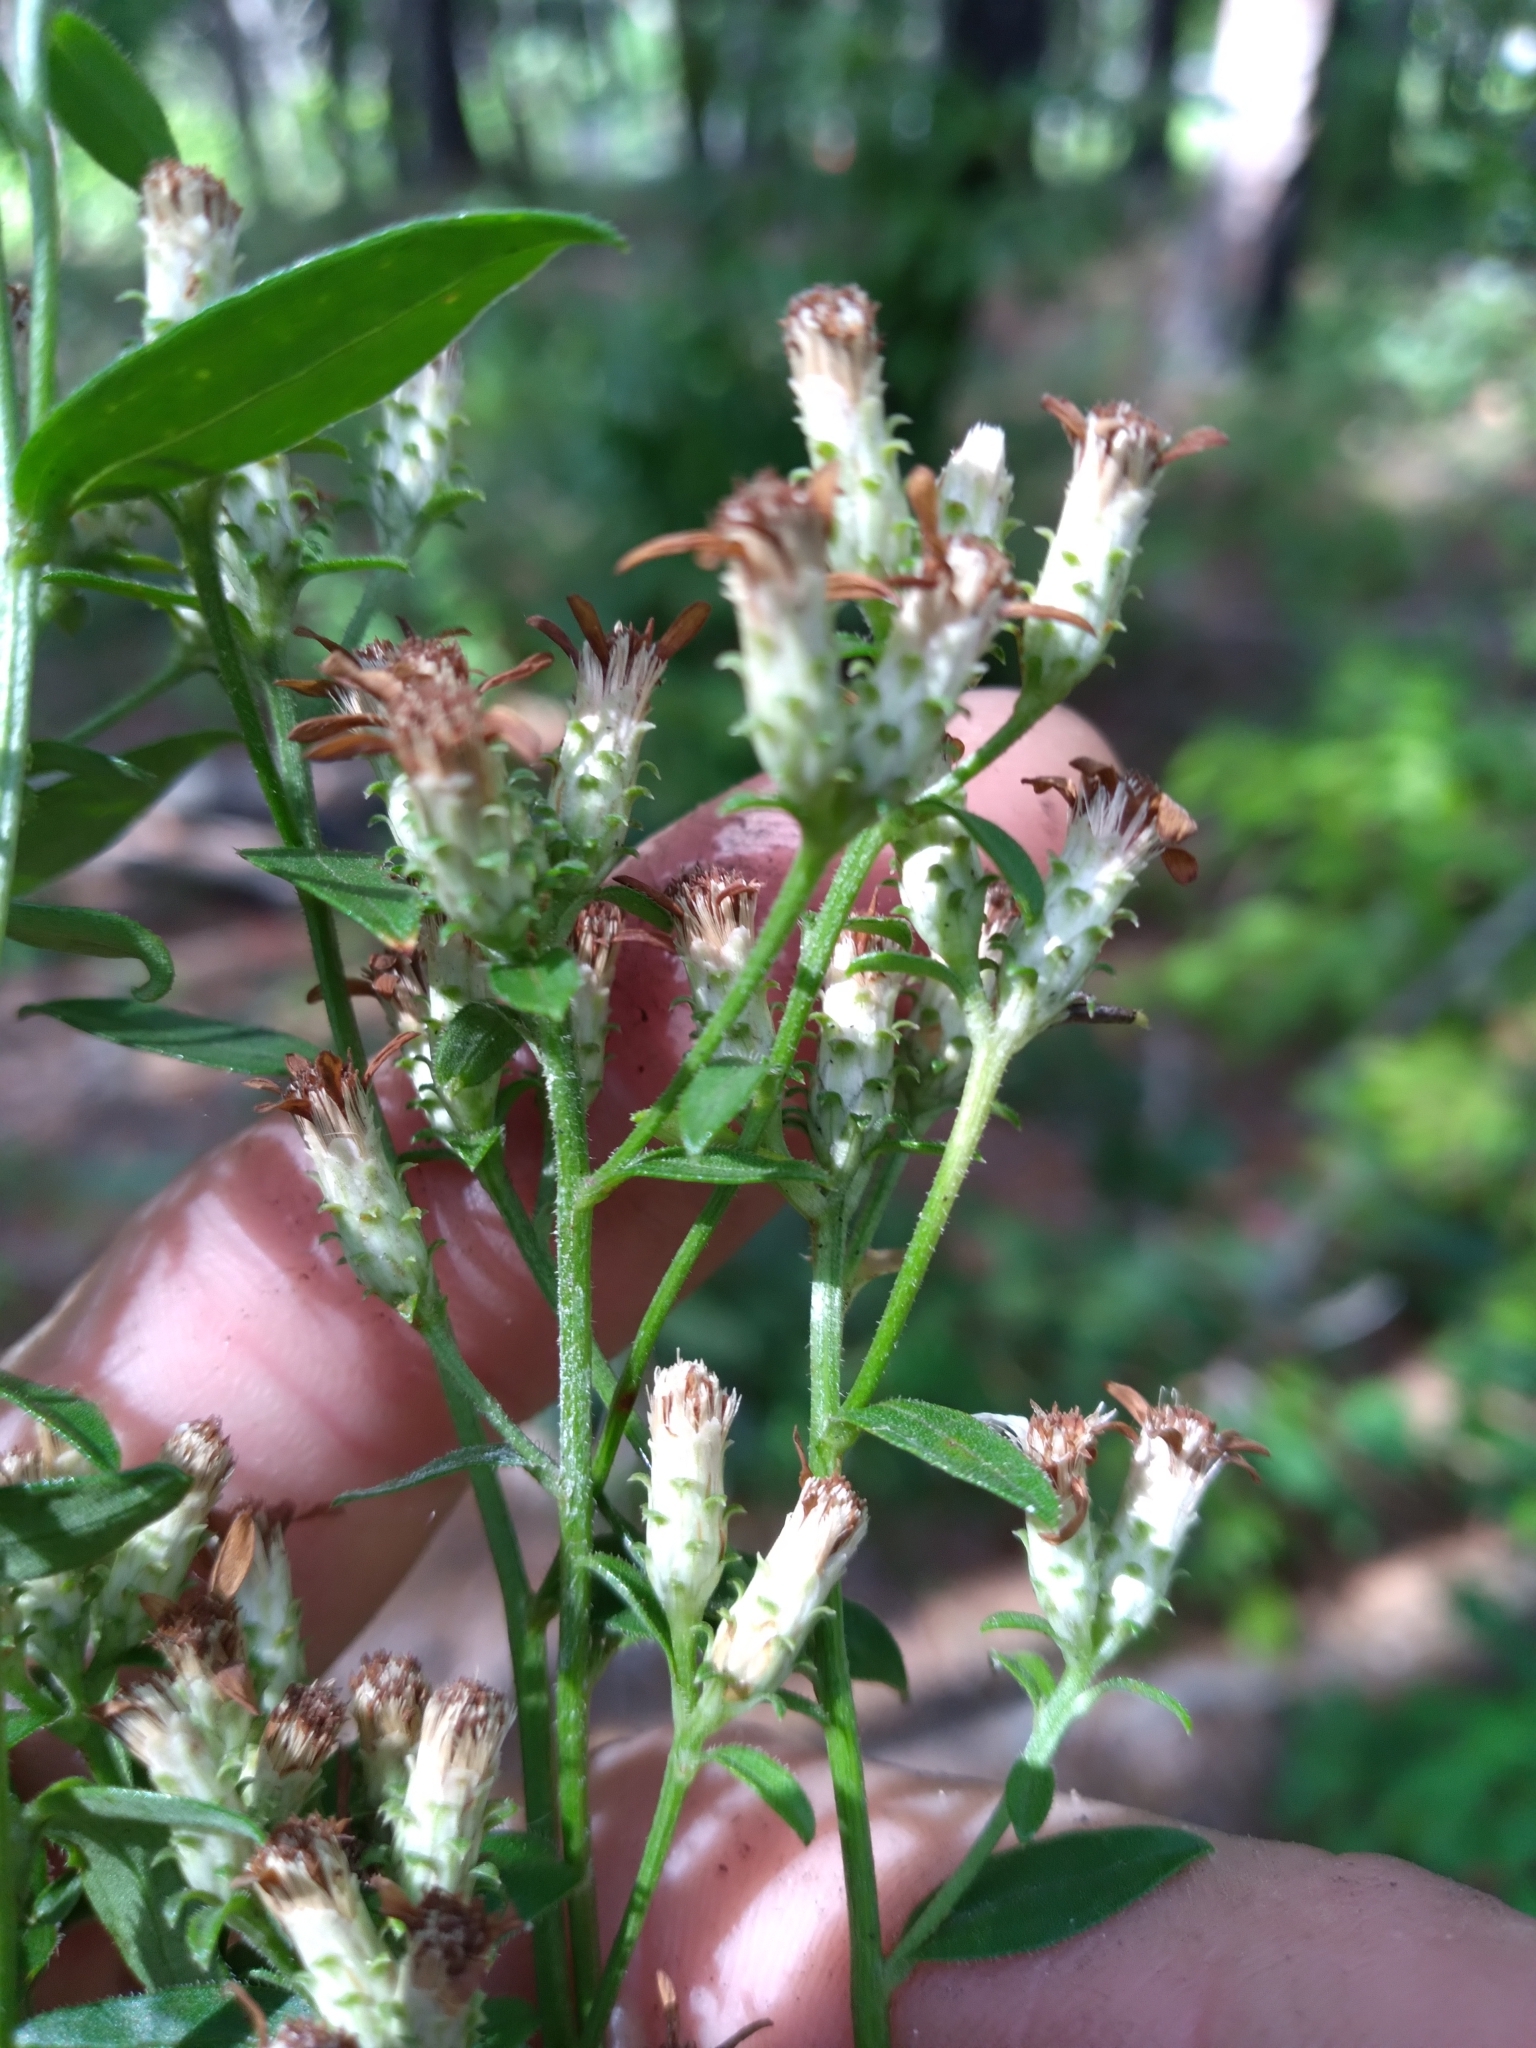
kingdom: Plantae
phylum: Tracheophyta
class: Magnoliopsida
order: Asterales
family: Asteraceae
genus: Sericocarpus
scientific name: Sericocarpus asteroides
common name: Toothed white-top aster
